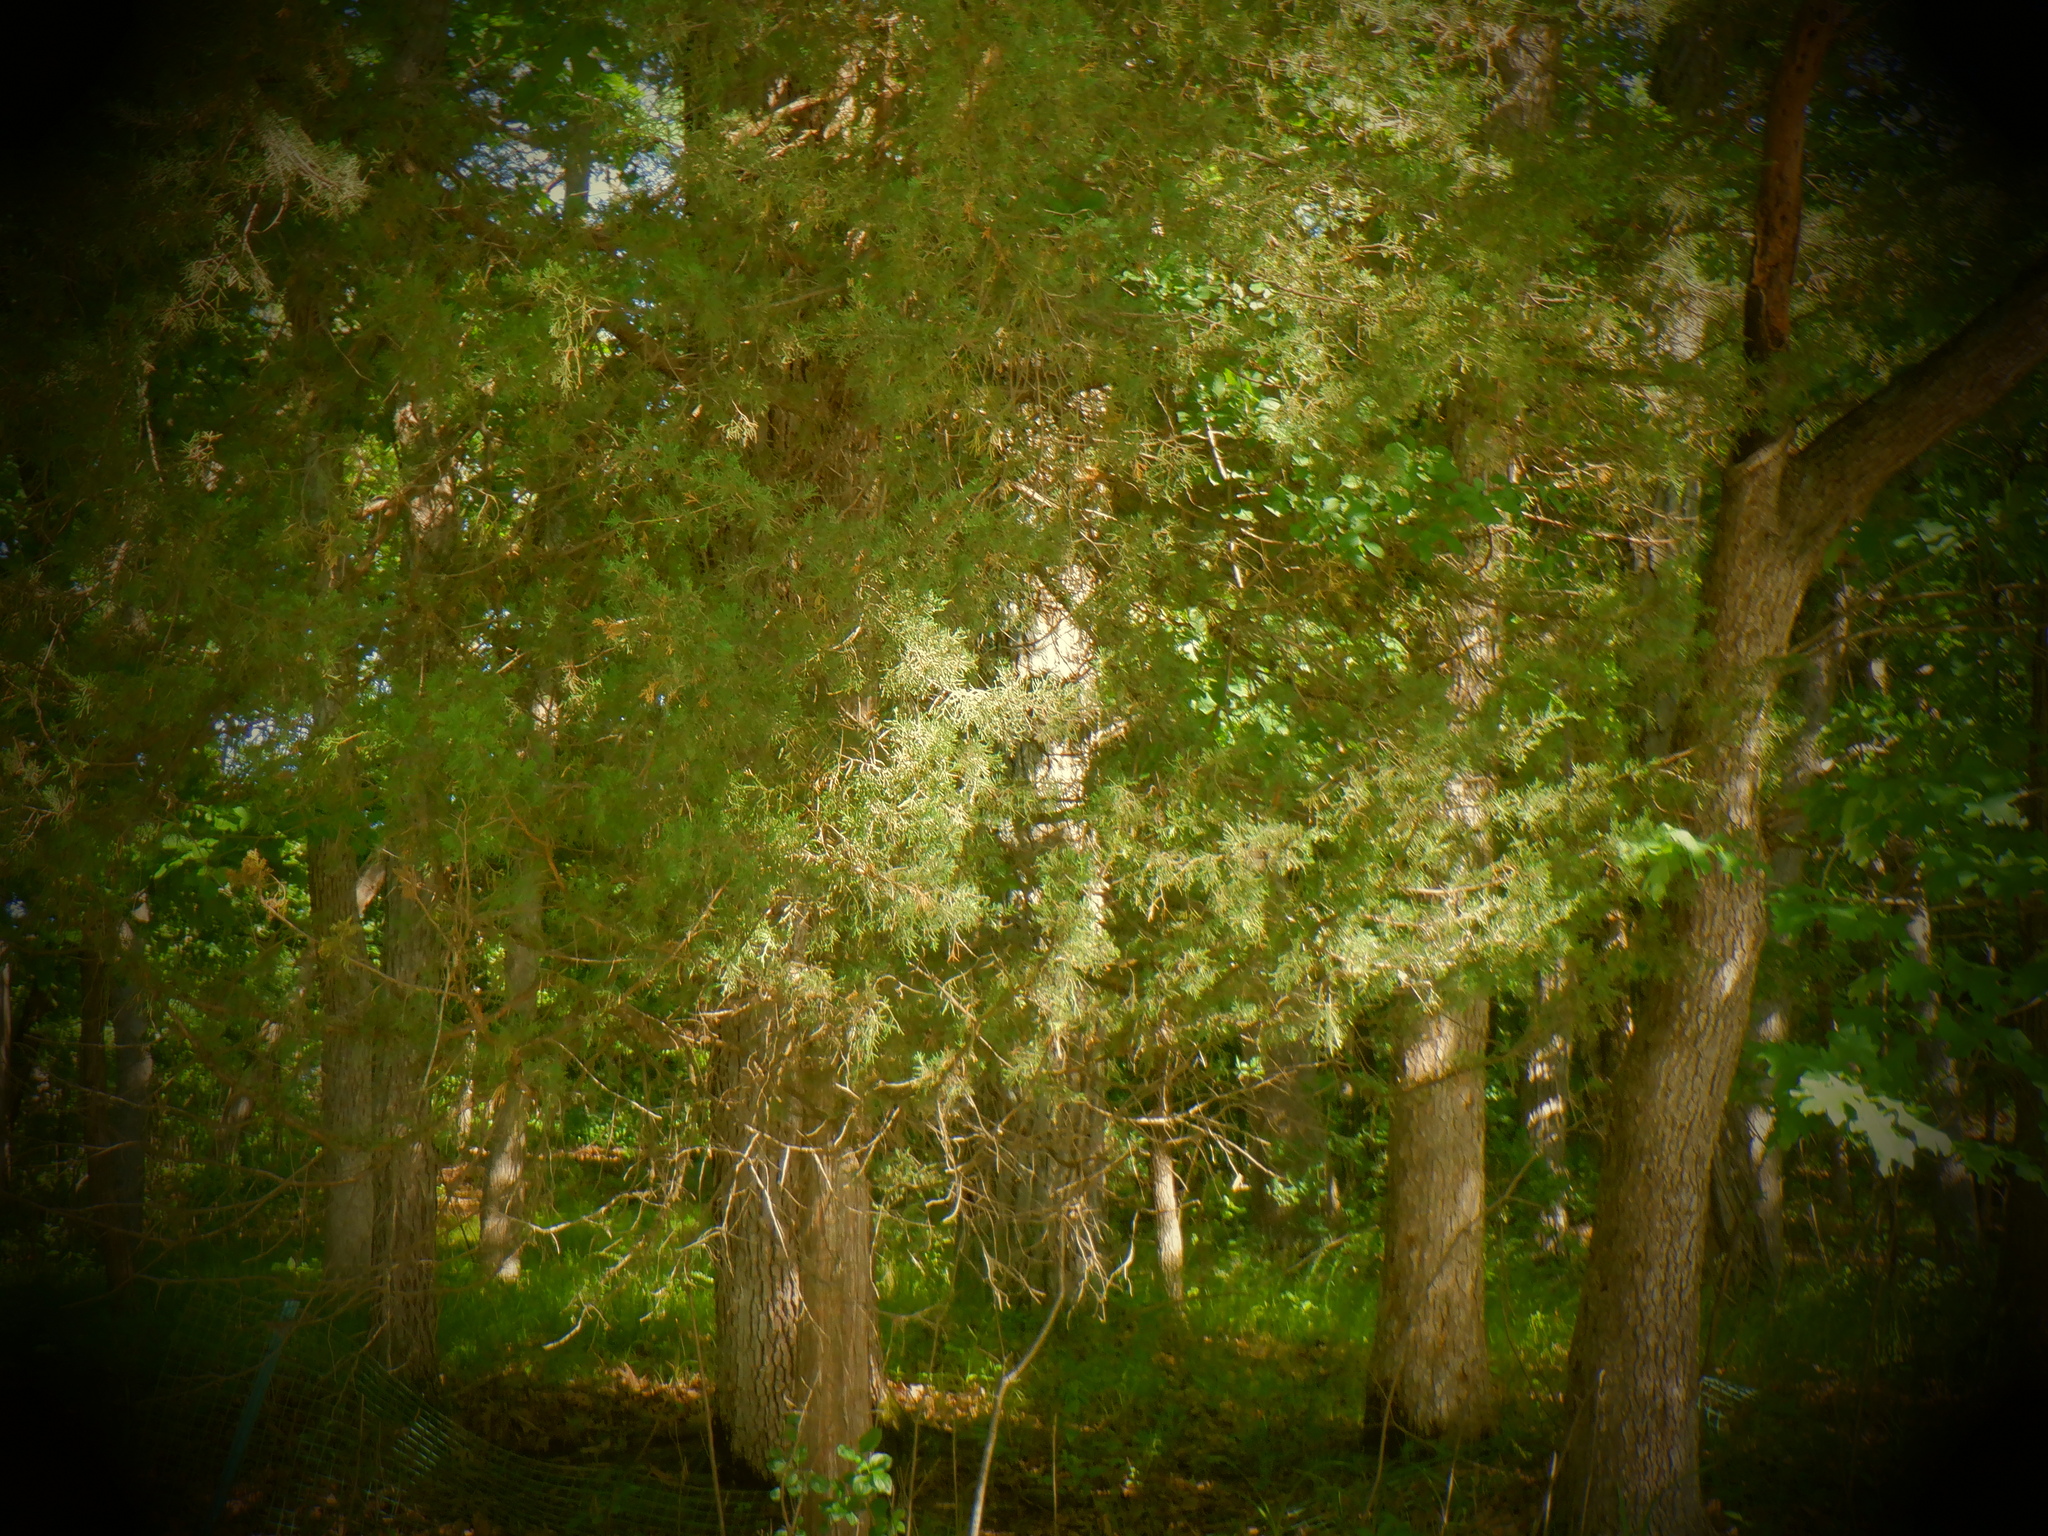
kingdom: Plantae
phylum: Tracheophyta
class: Pinopsida
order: Pinales
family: Cupressaceae
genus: Thuja
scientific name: Thuja occidentalis
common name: Northern white-cedar
